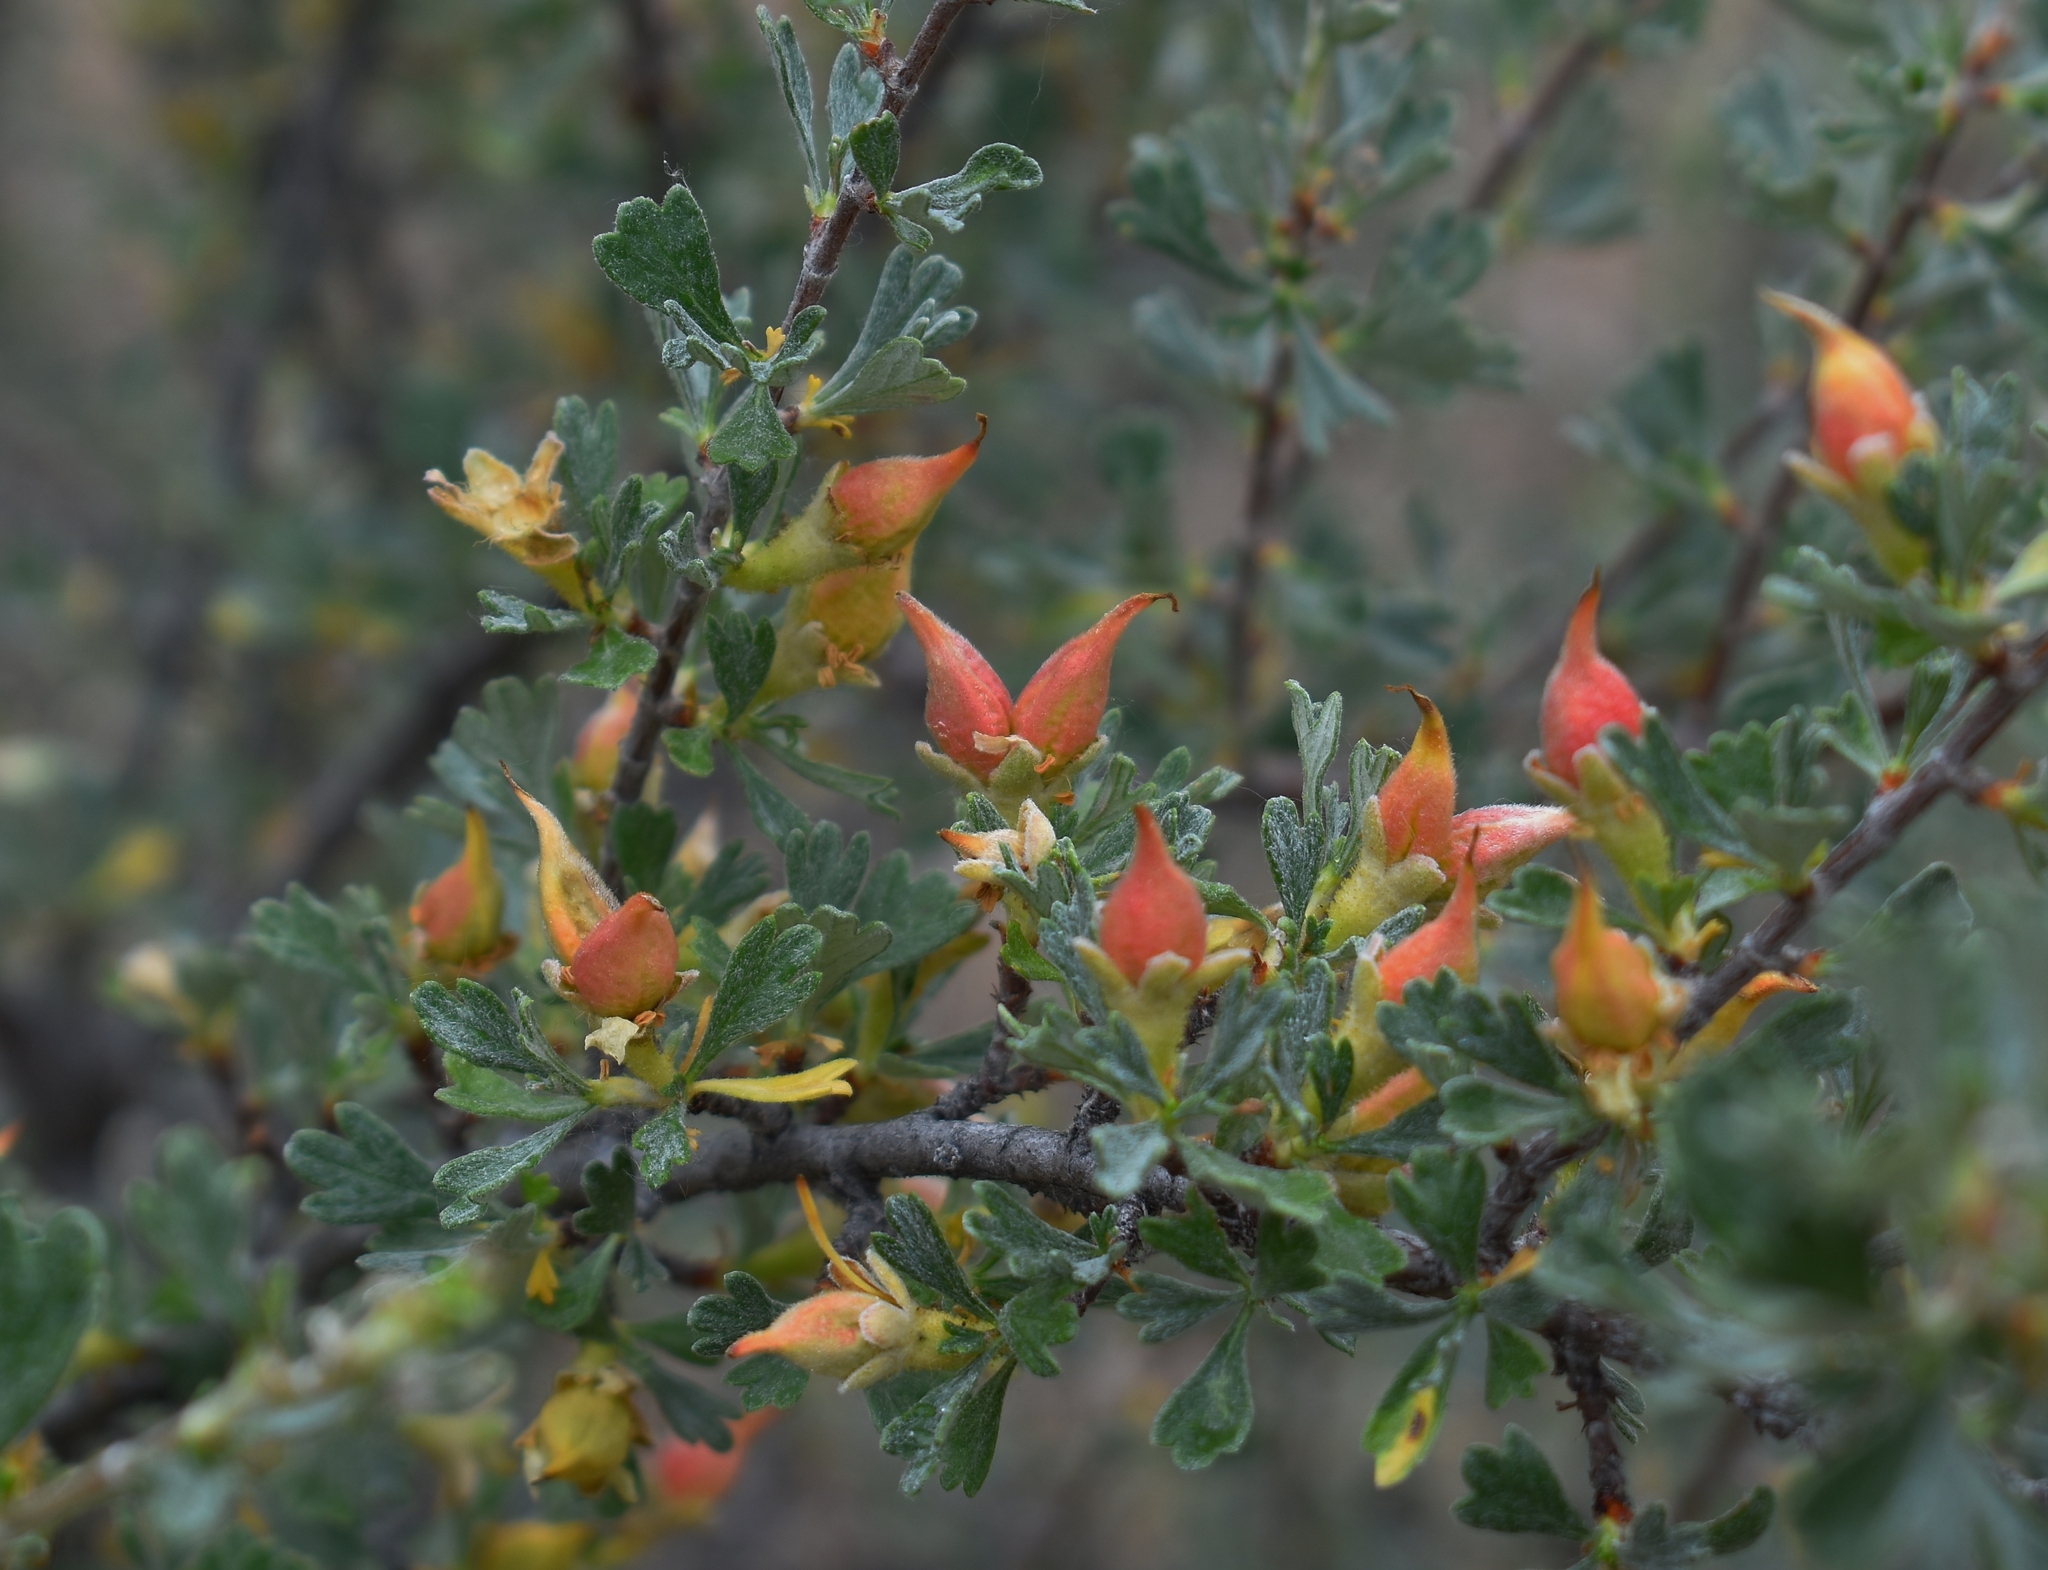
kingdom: Plantae
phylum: Tracheophyta
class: Magnoliopsida
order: Rosales
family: Rosaceae
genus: Purshia
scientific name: Purshia tridentata
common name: Antelope bitterbrush
